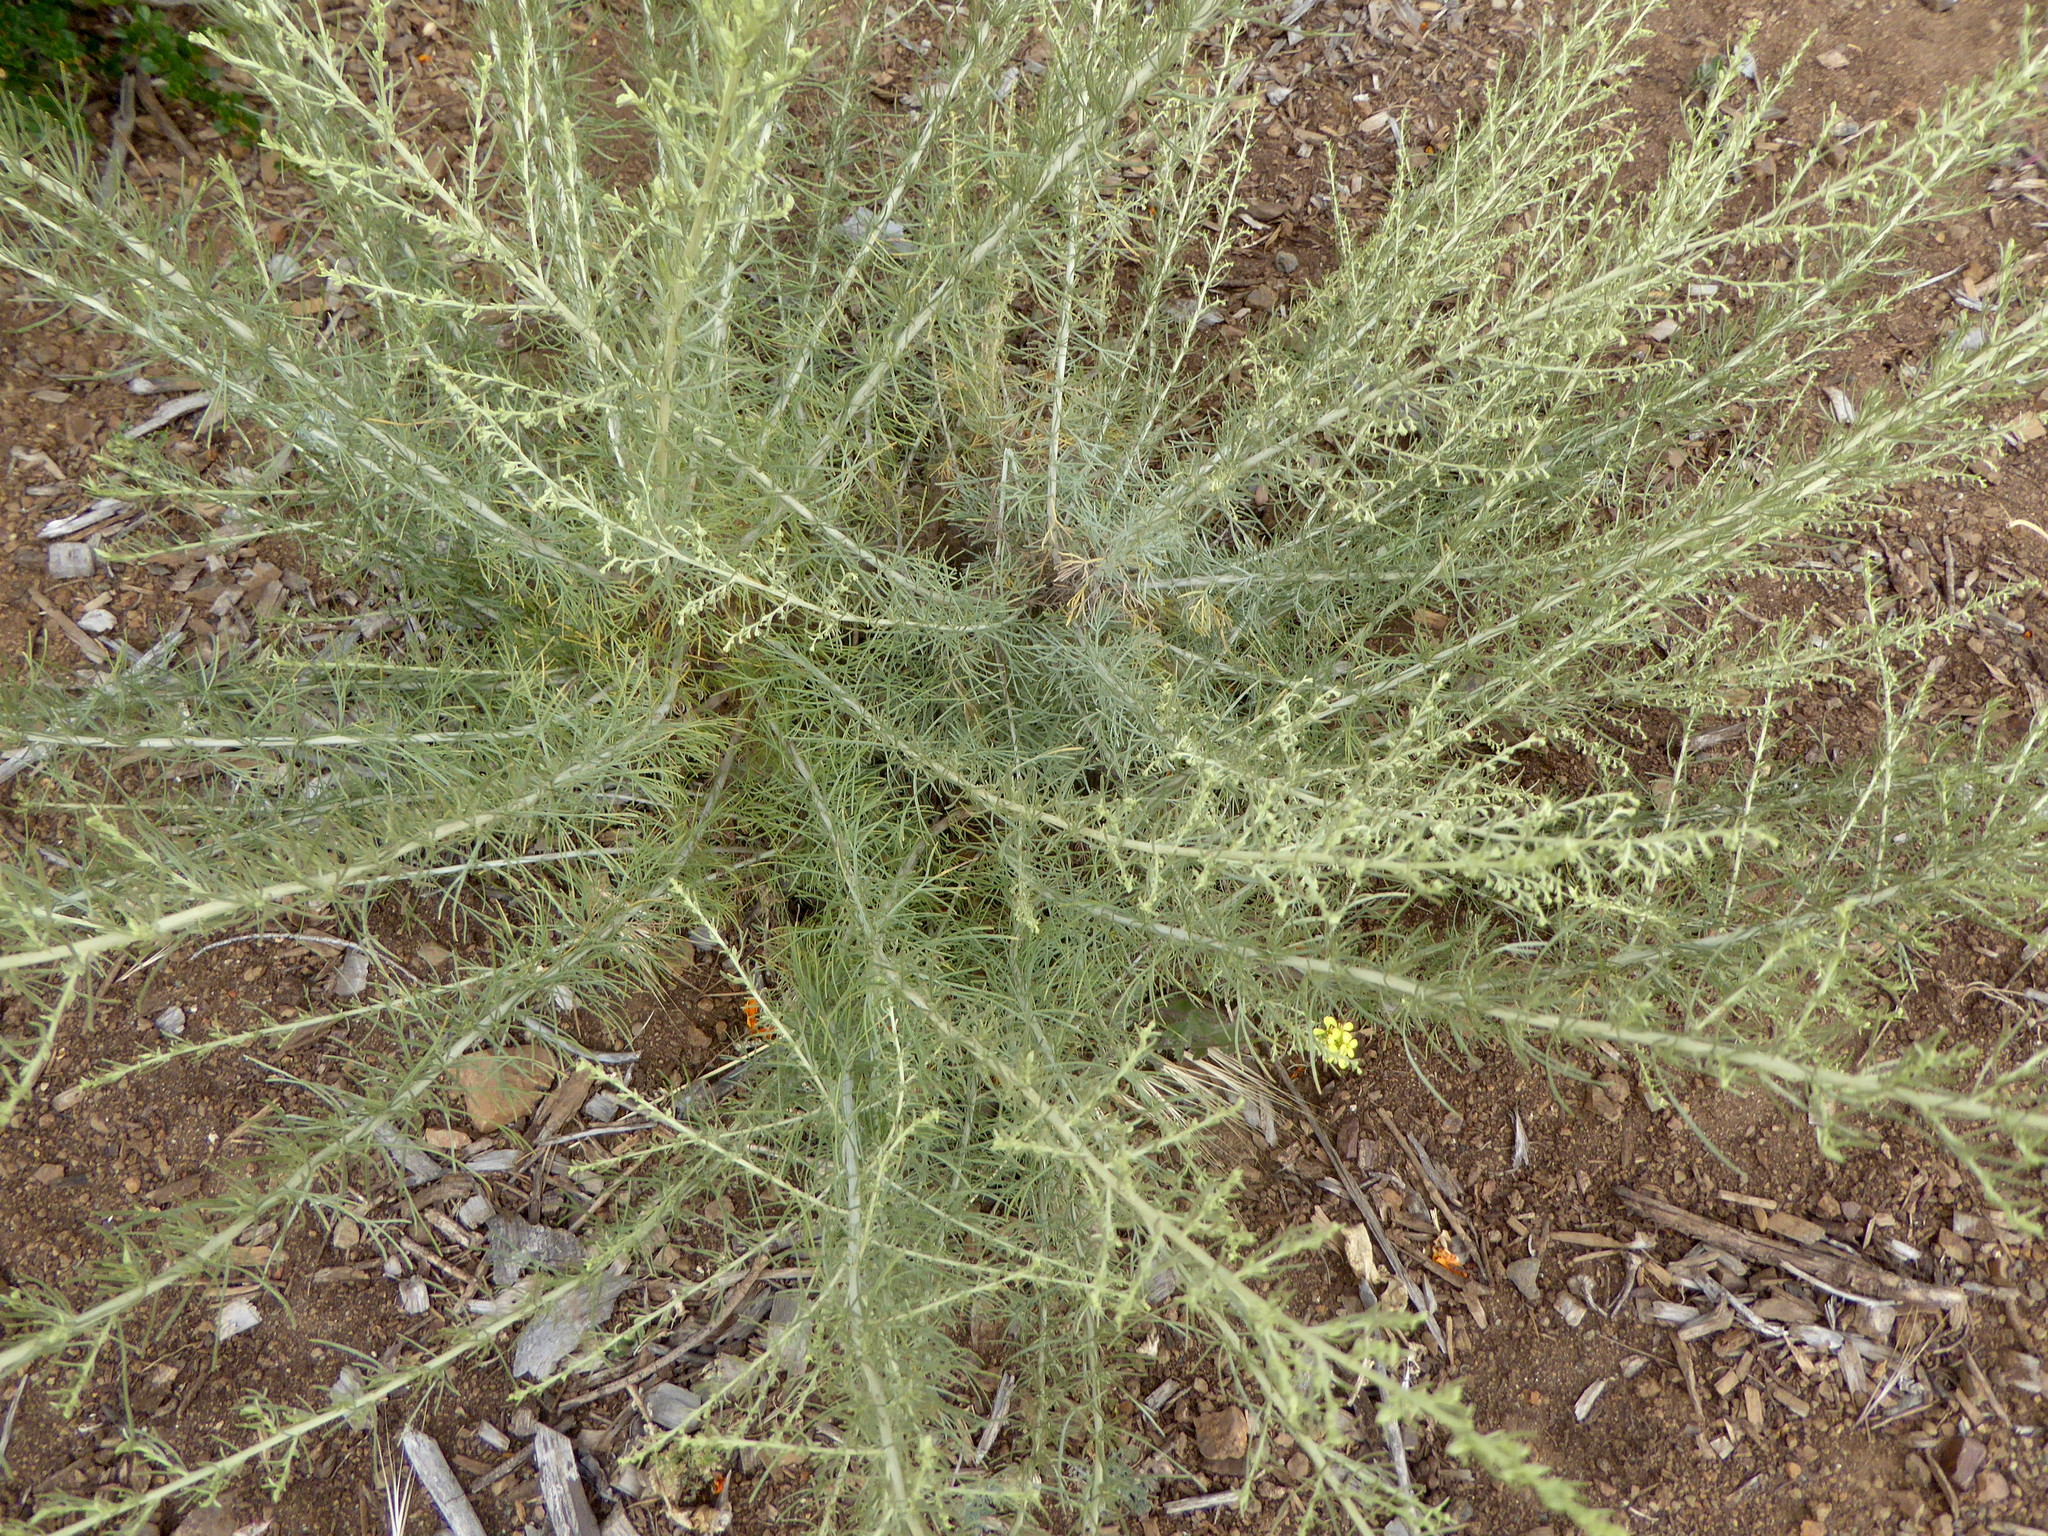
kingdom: Plantae
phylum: Tracheophyta
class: Magnoliopsida
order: Asterales
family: Asteraceae
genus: Artemisia
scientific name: Artemisia californica
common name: California sagebrush
